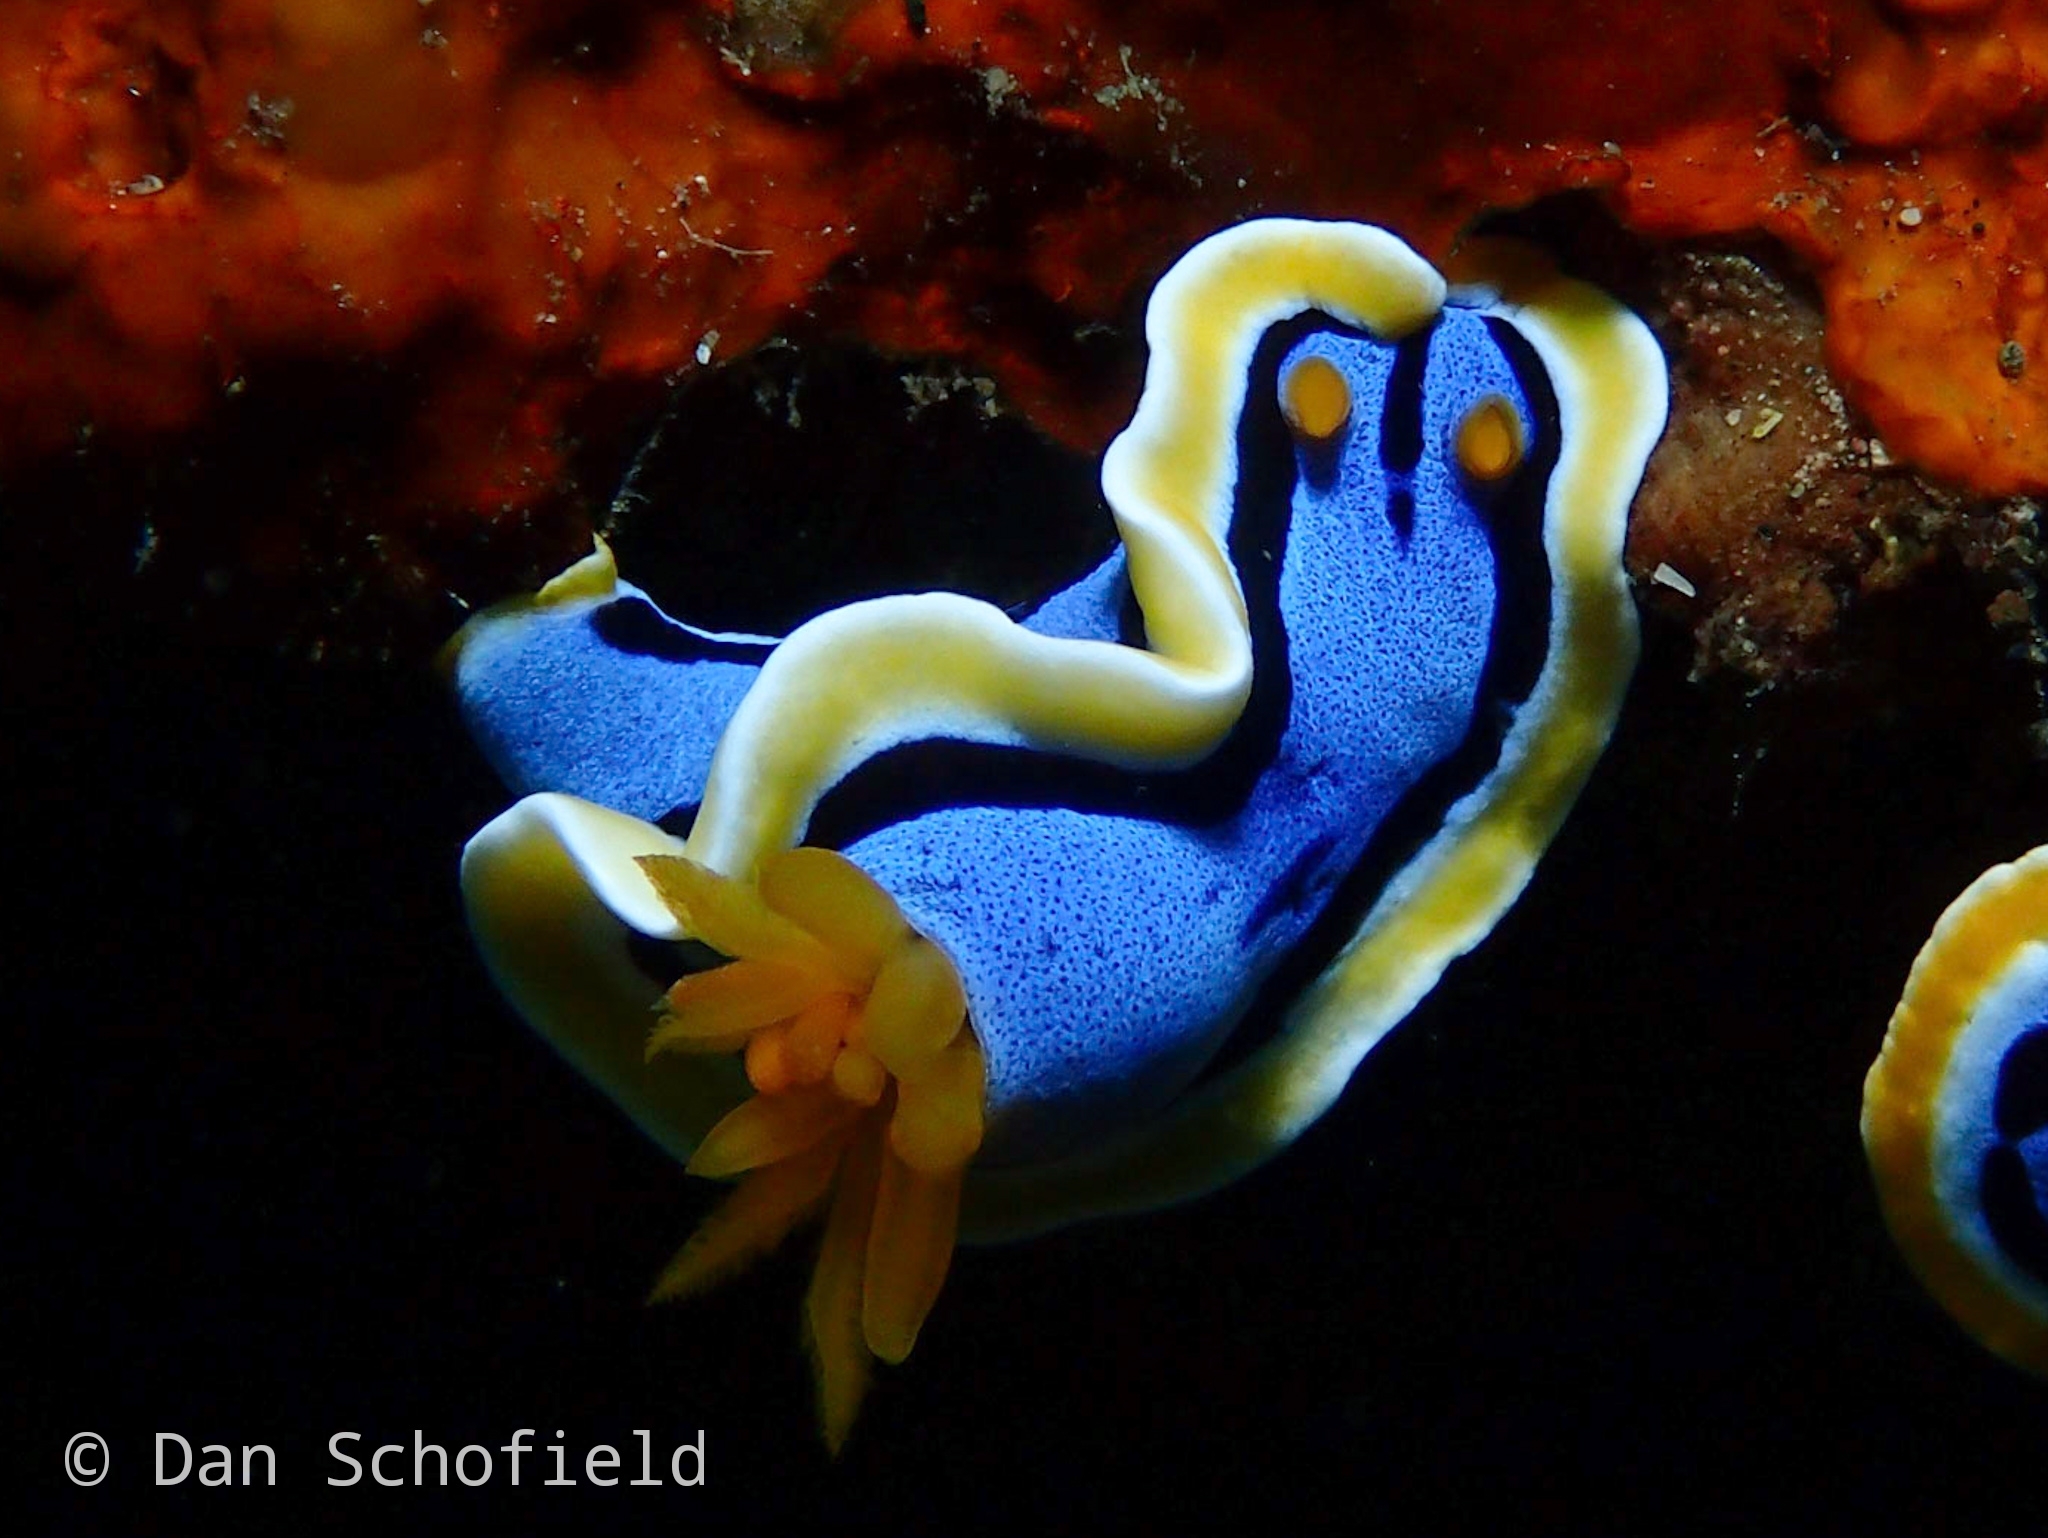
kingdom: Animalia
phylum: Mollusca
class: Gastropoda
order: Nudibranchia
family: Chromodorididae
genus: Chromodoris
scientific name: Chromodoris annae
